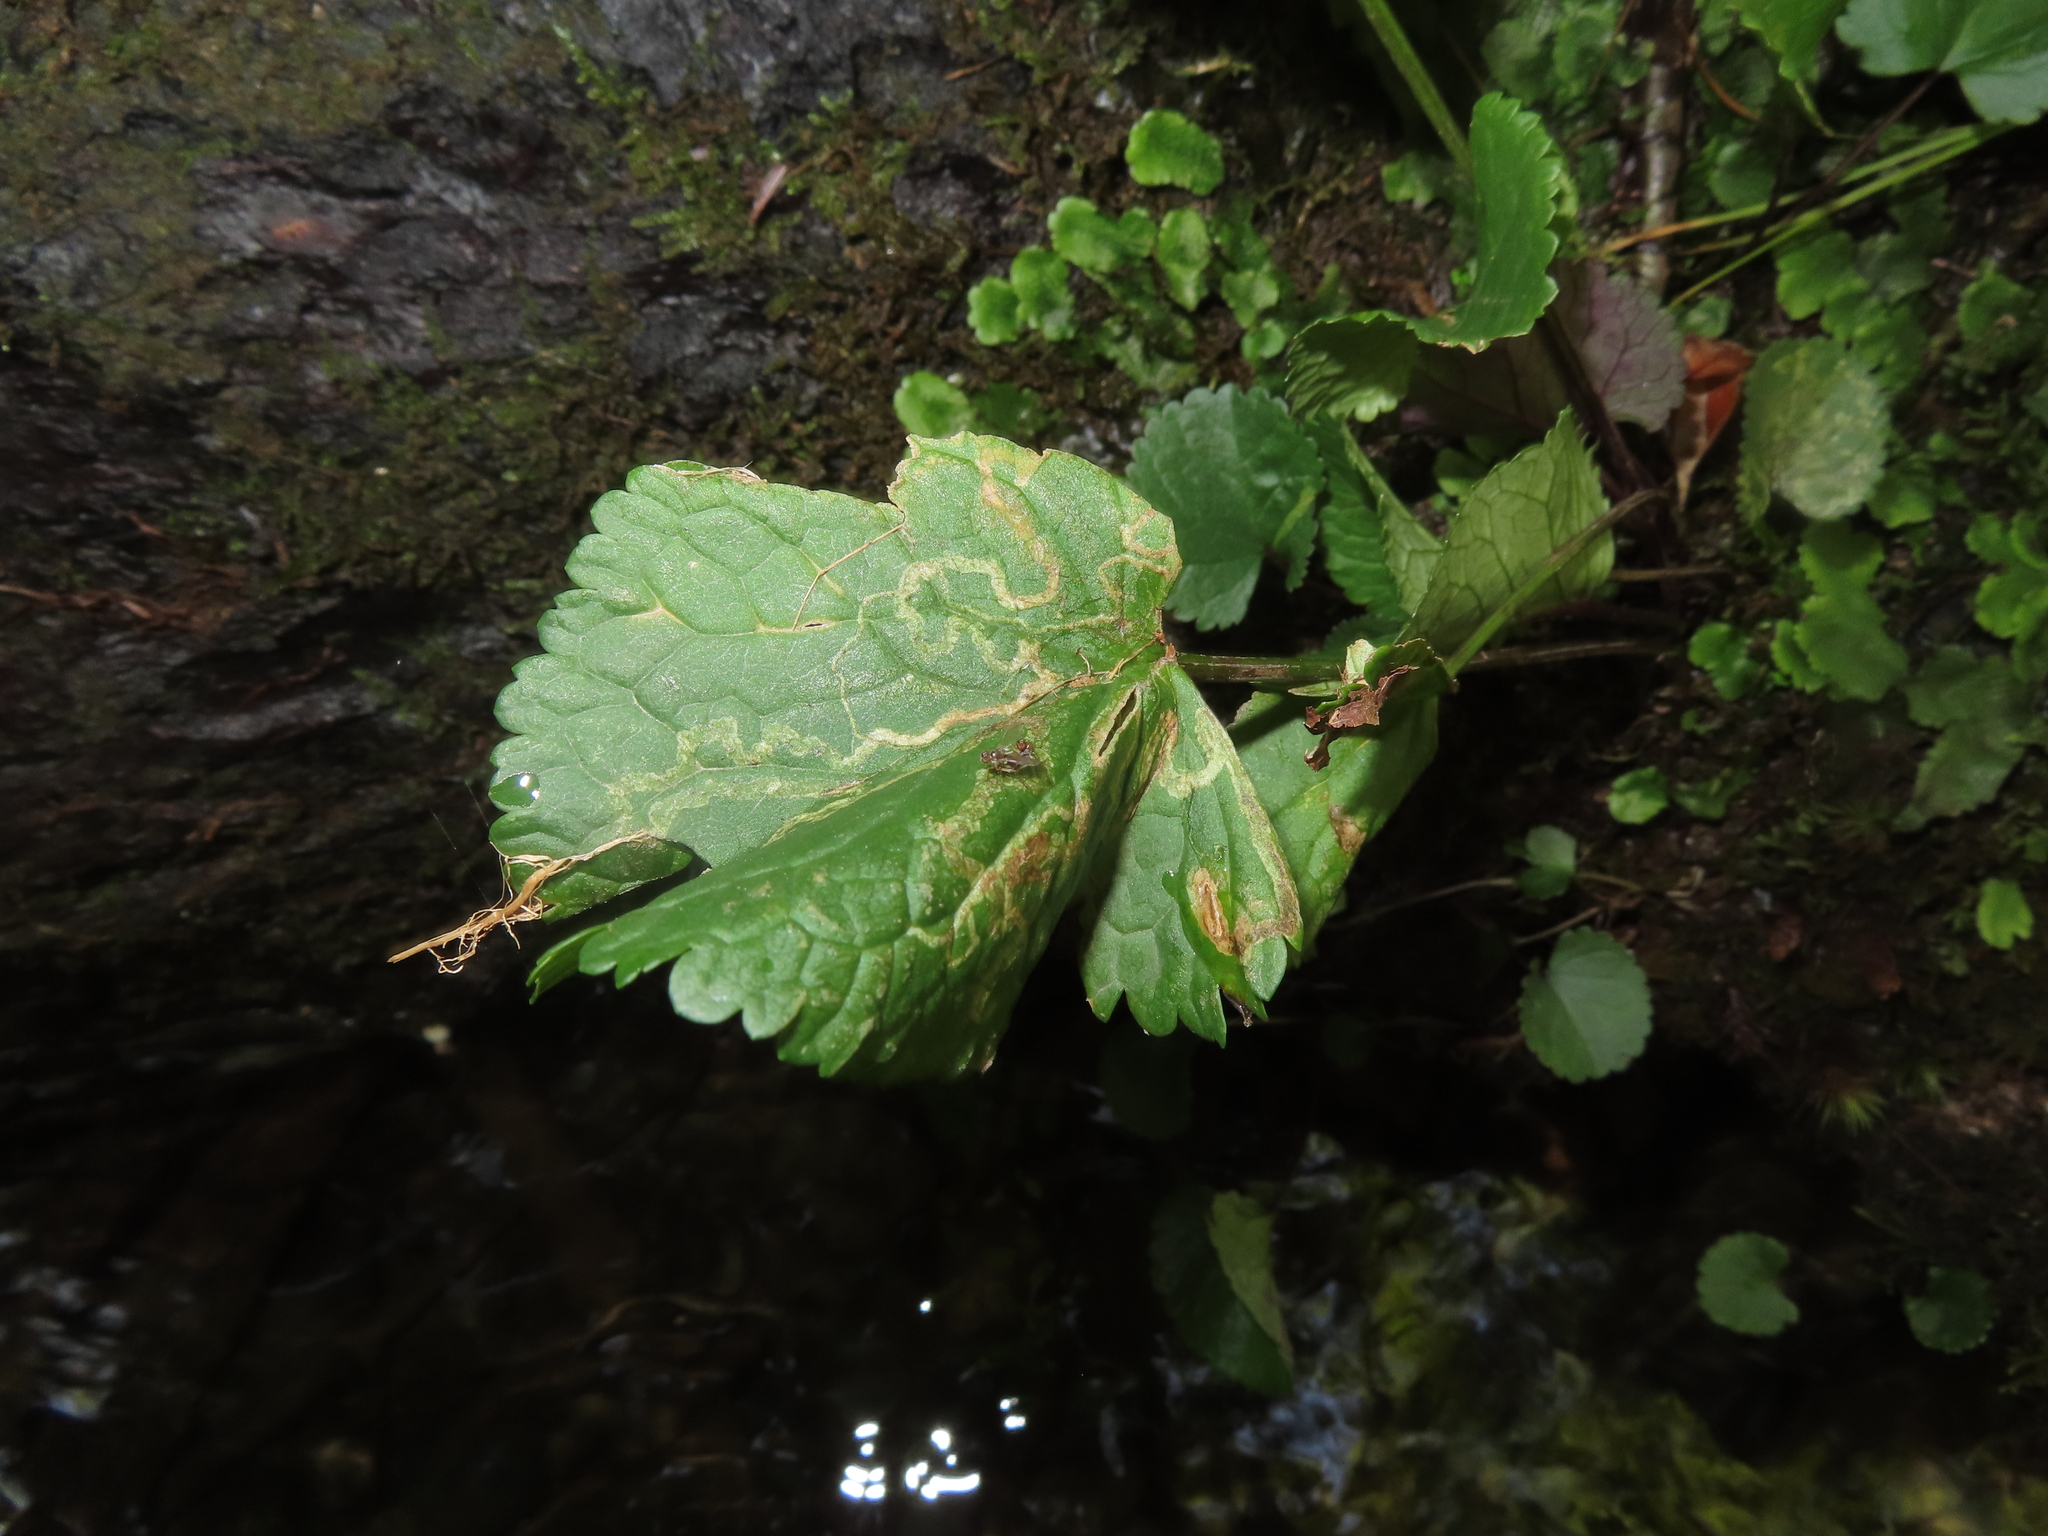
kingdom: Animalia
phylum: Arthropoda
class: Insecta
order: Lepidoptera
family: Gracillariidae
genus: Phyllocnistis
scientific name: Phyllocnistis insignis
